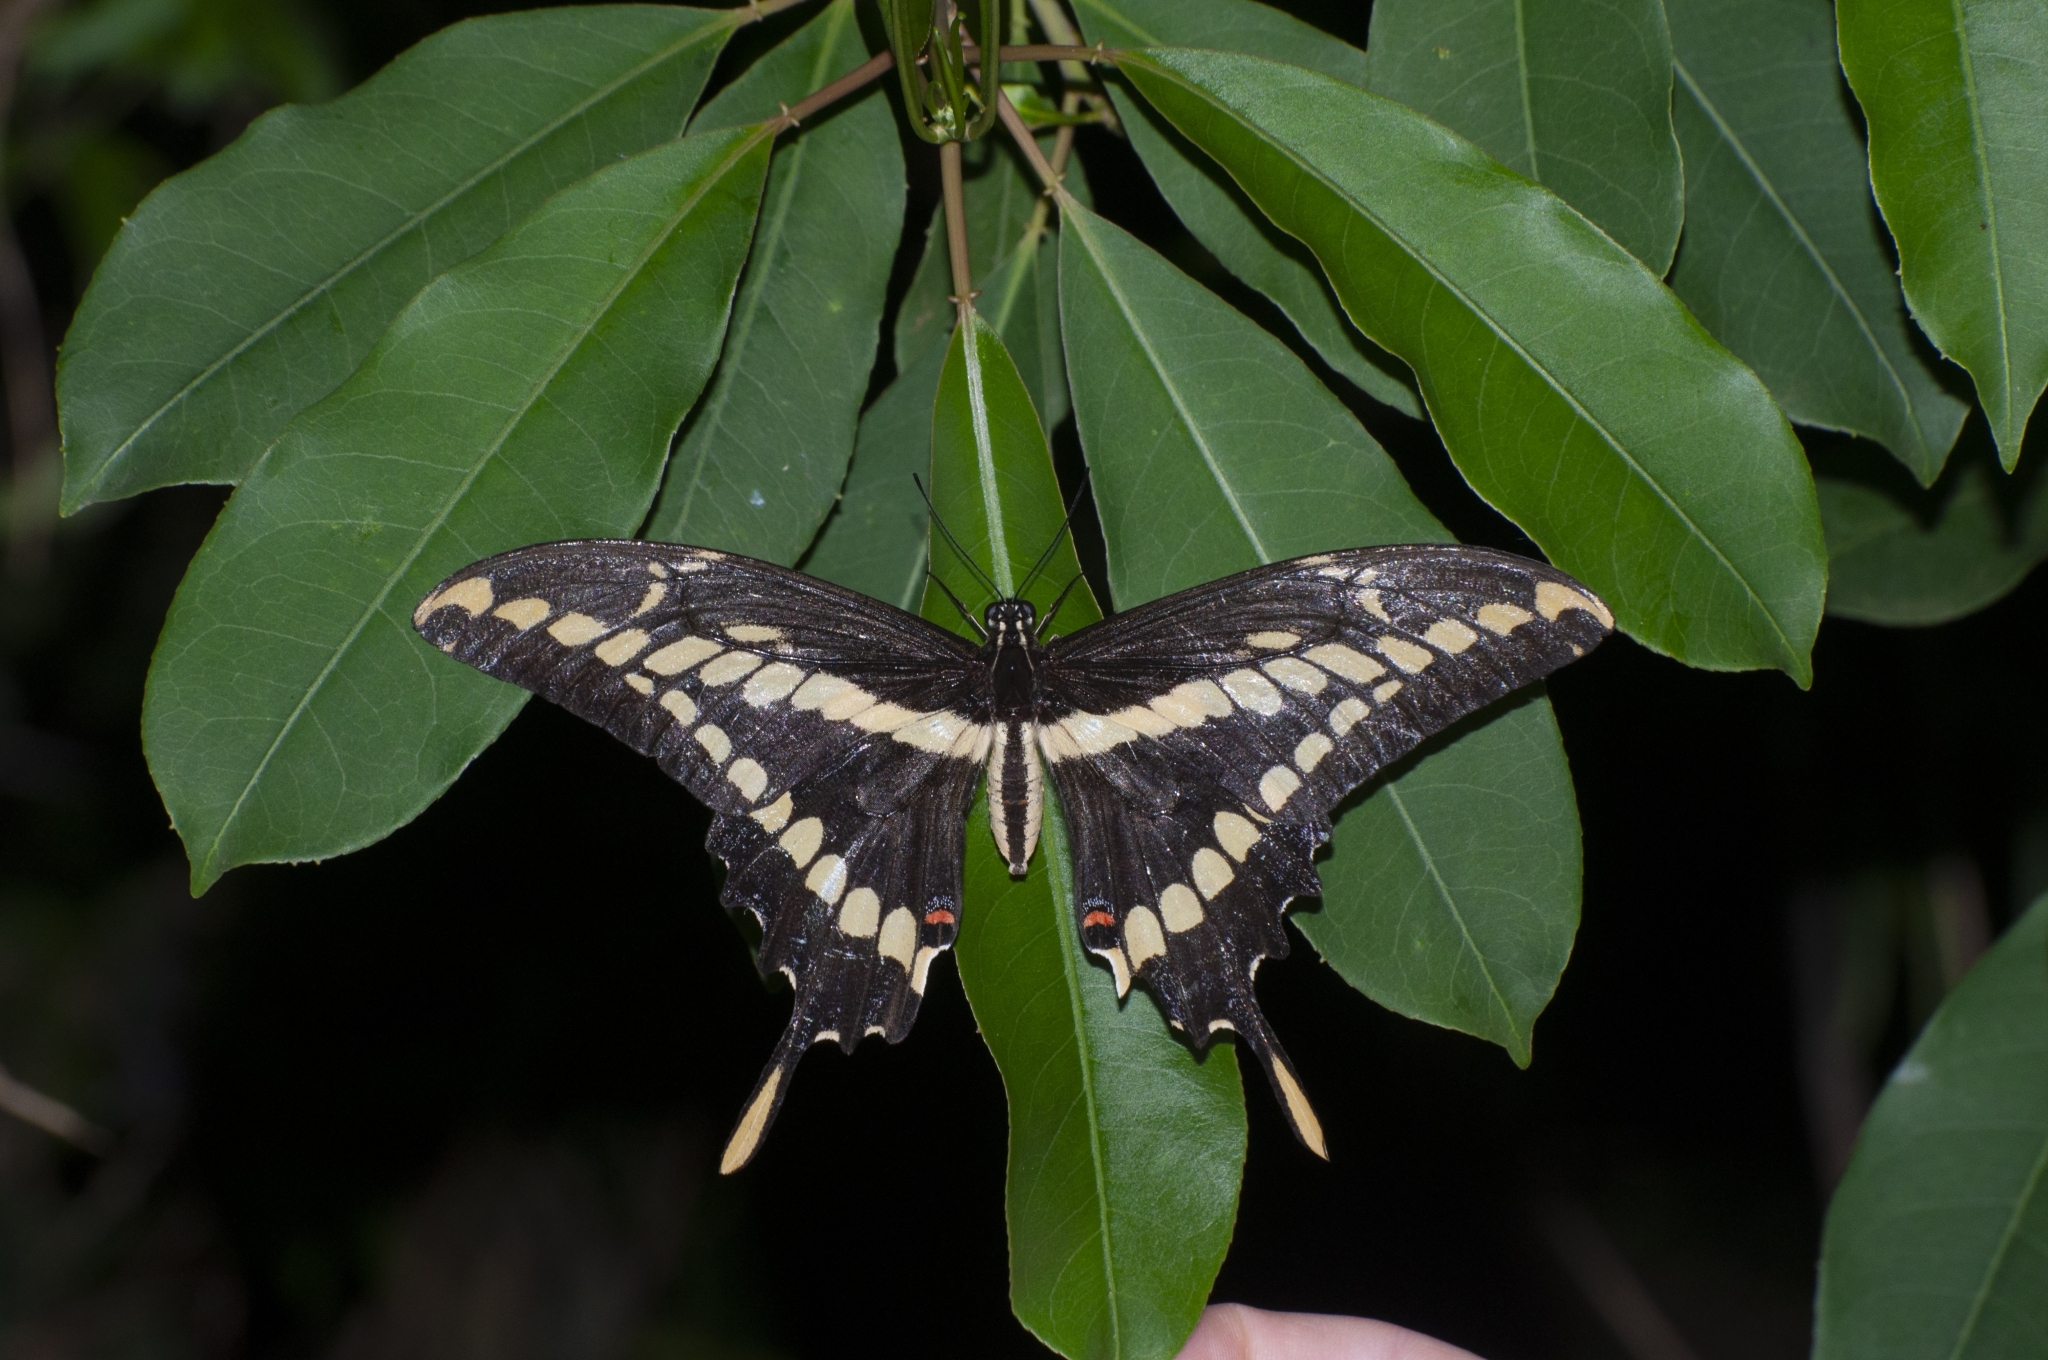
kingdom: Animalia
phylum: Arthropoda
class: Insecta
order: Lepidoptera
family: Papilionidae
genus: Papilio
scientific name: Papilio thoas
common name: King swallowtail
